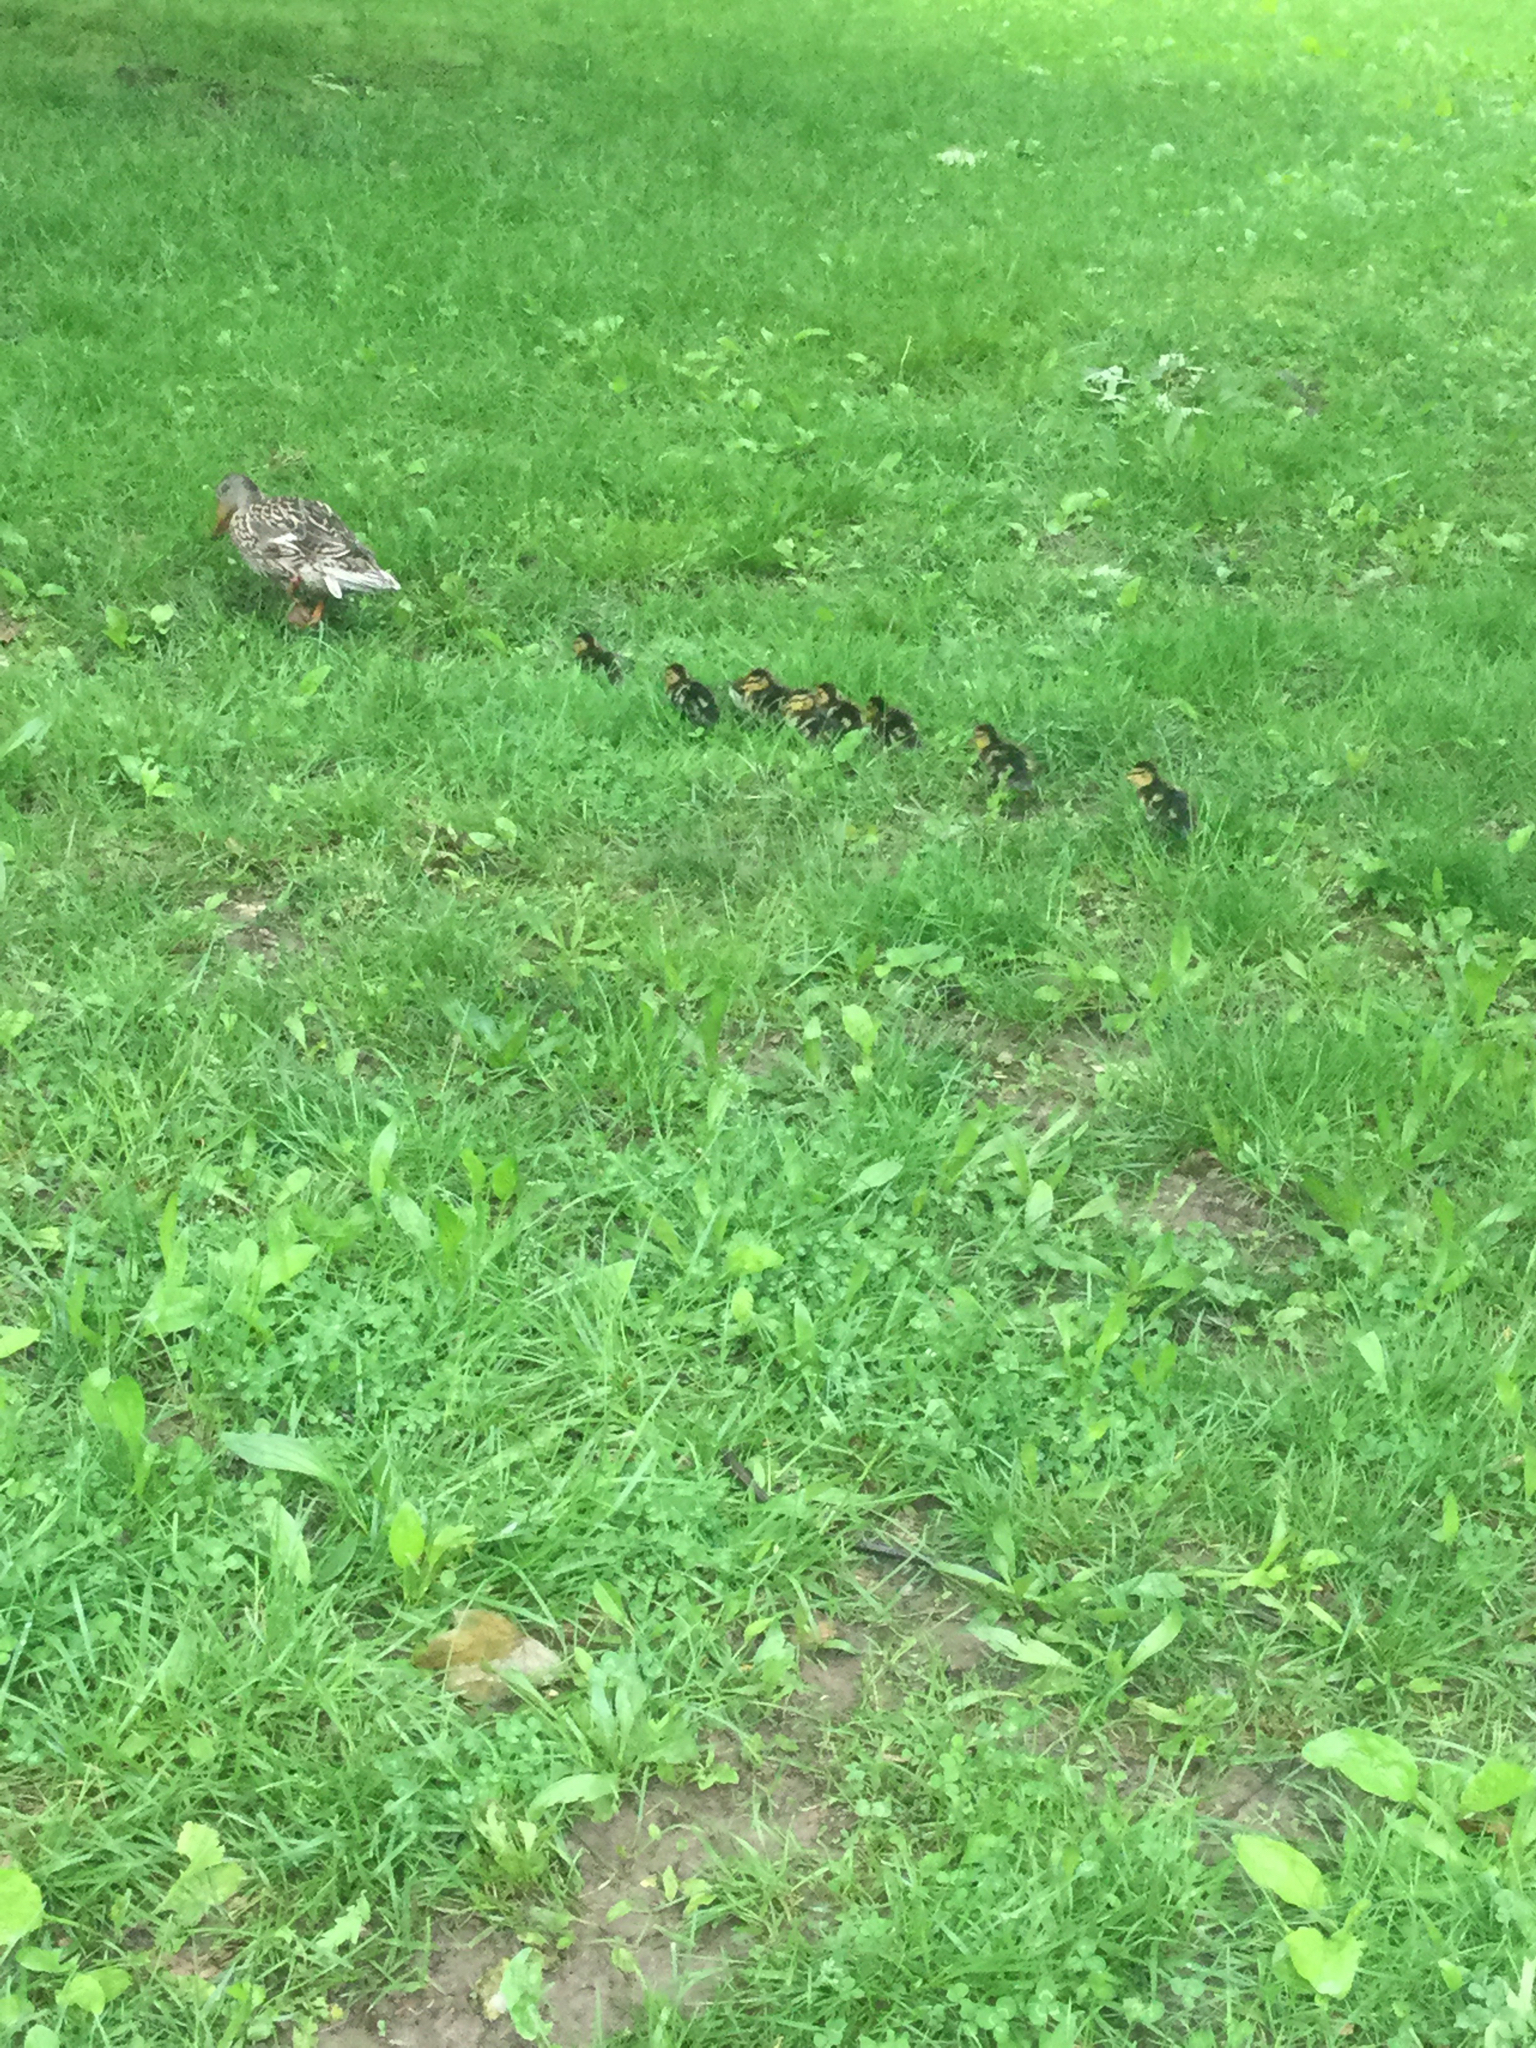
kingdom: Animalia
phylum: Chordata
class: Aves
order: Anseriformes
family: Anatidae
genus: Anas
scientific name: Anas platyrhynchos
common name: Mallard
